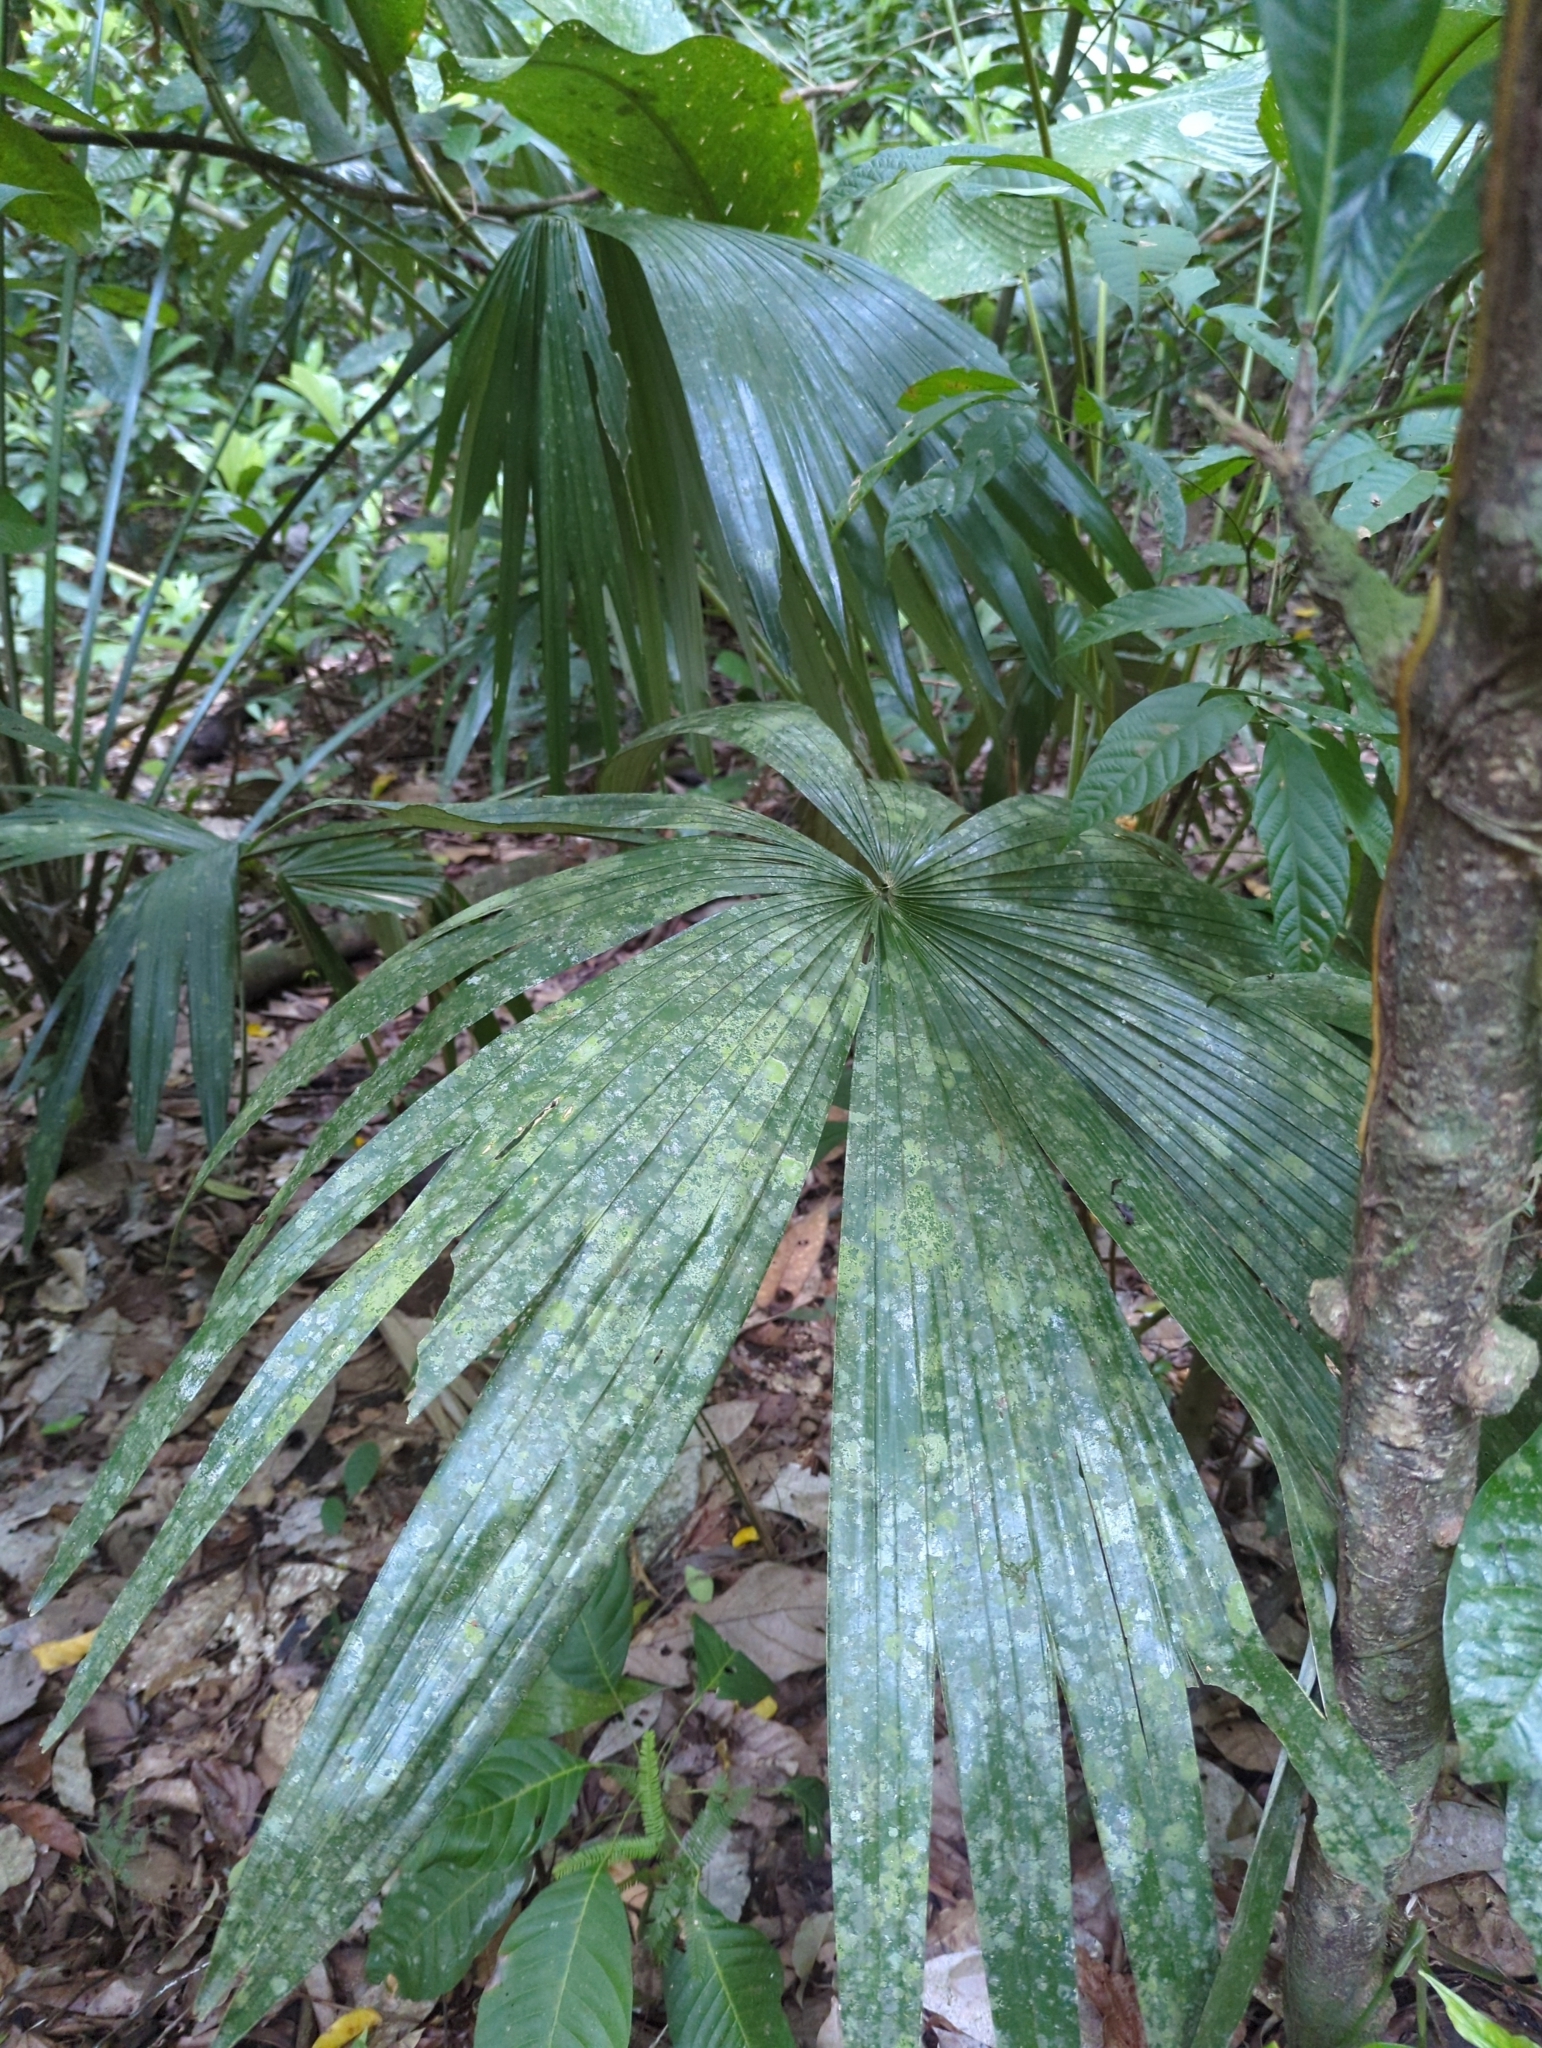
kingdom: Plantae
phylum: Tracheophyta
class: Liliopsida
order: Pandanales
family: Cyclanthaceae
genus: Carludovica
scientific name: Carludovica palmata
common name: Panama hat plant
